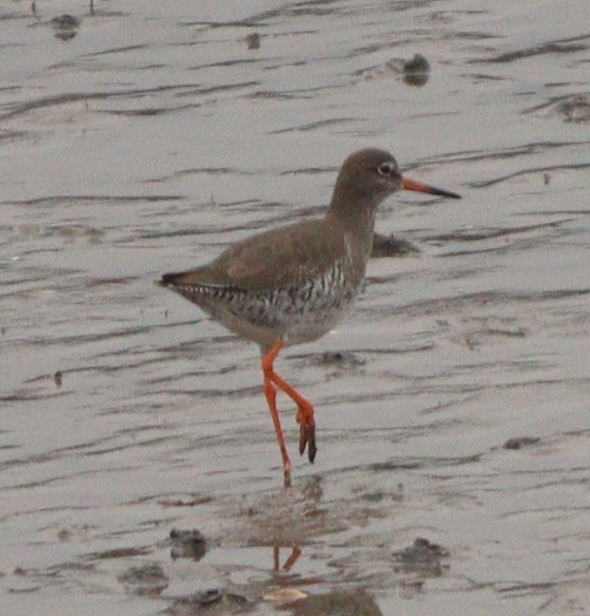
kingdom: Animalia
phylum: Chordata
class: Aves
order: Charadriiformes
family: Scolopacidae
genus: Tringa
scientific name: Tringa totanus
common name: Common redshank
